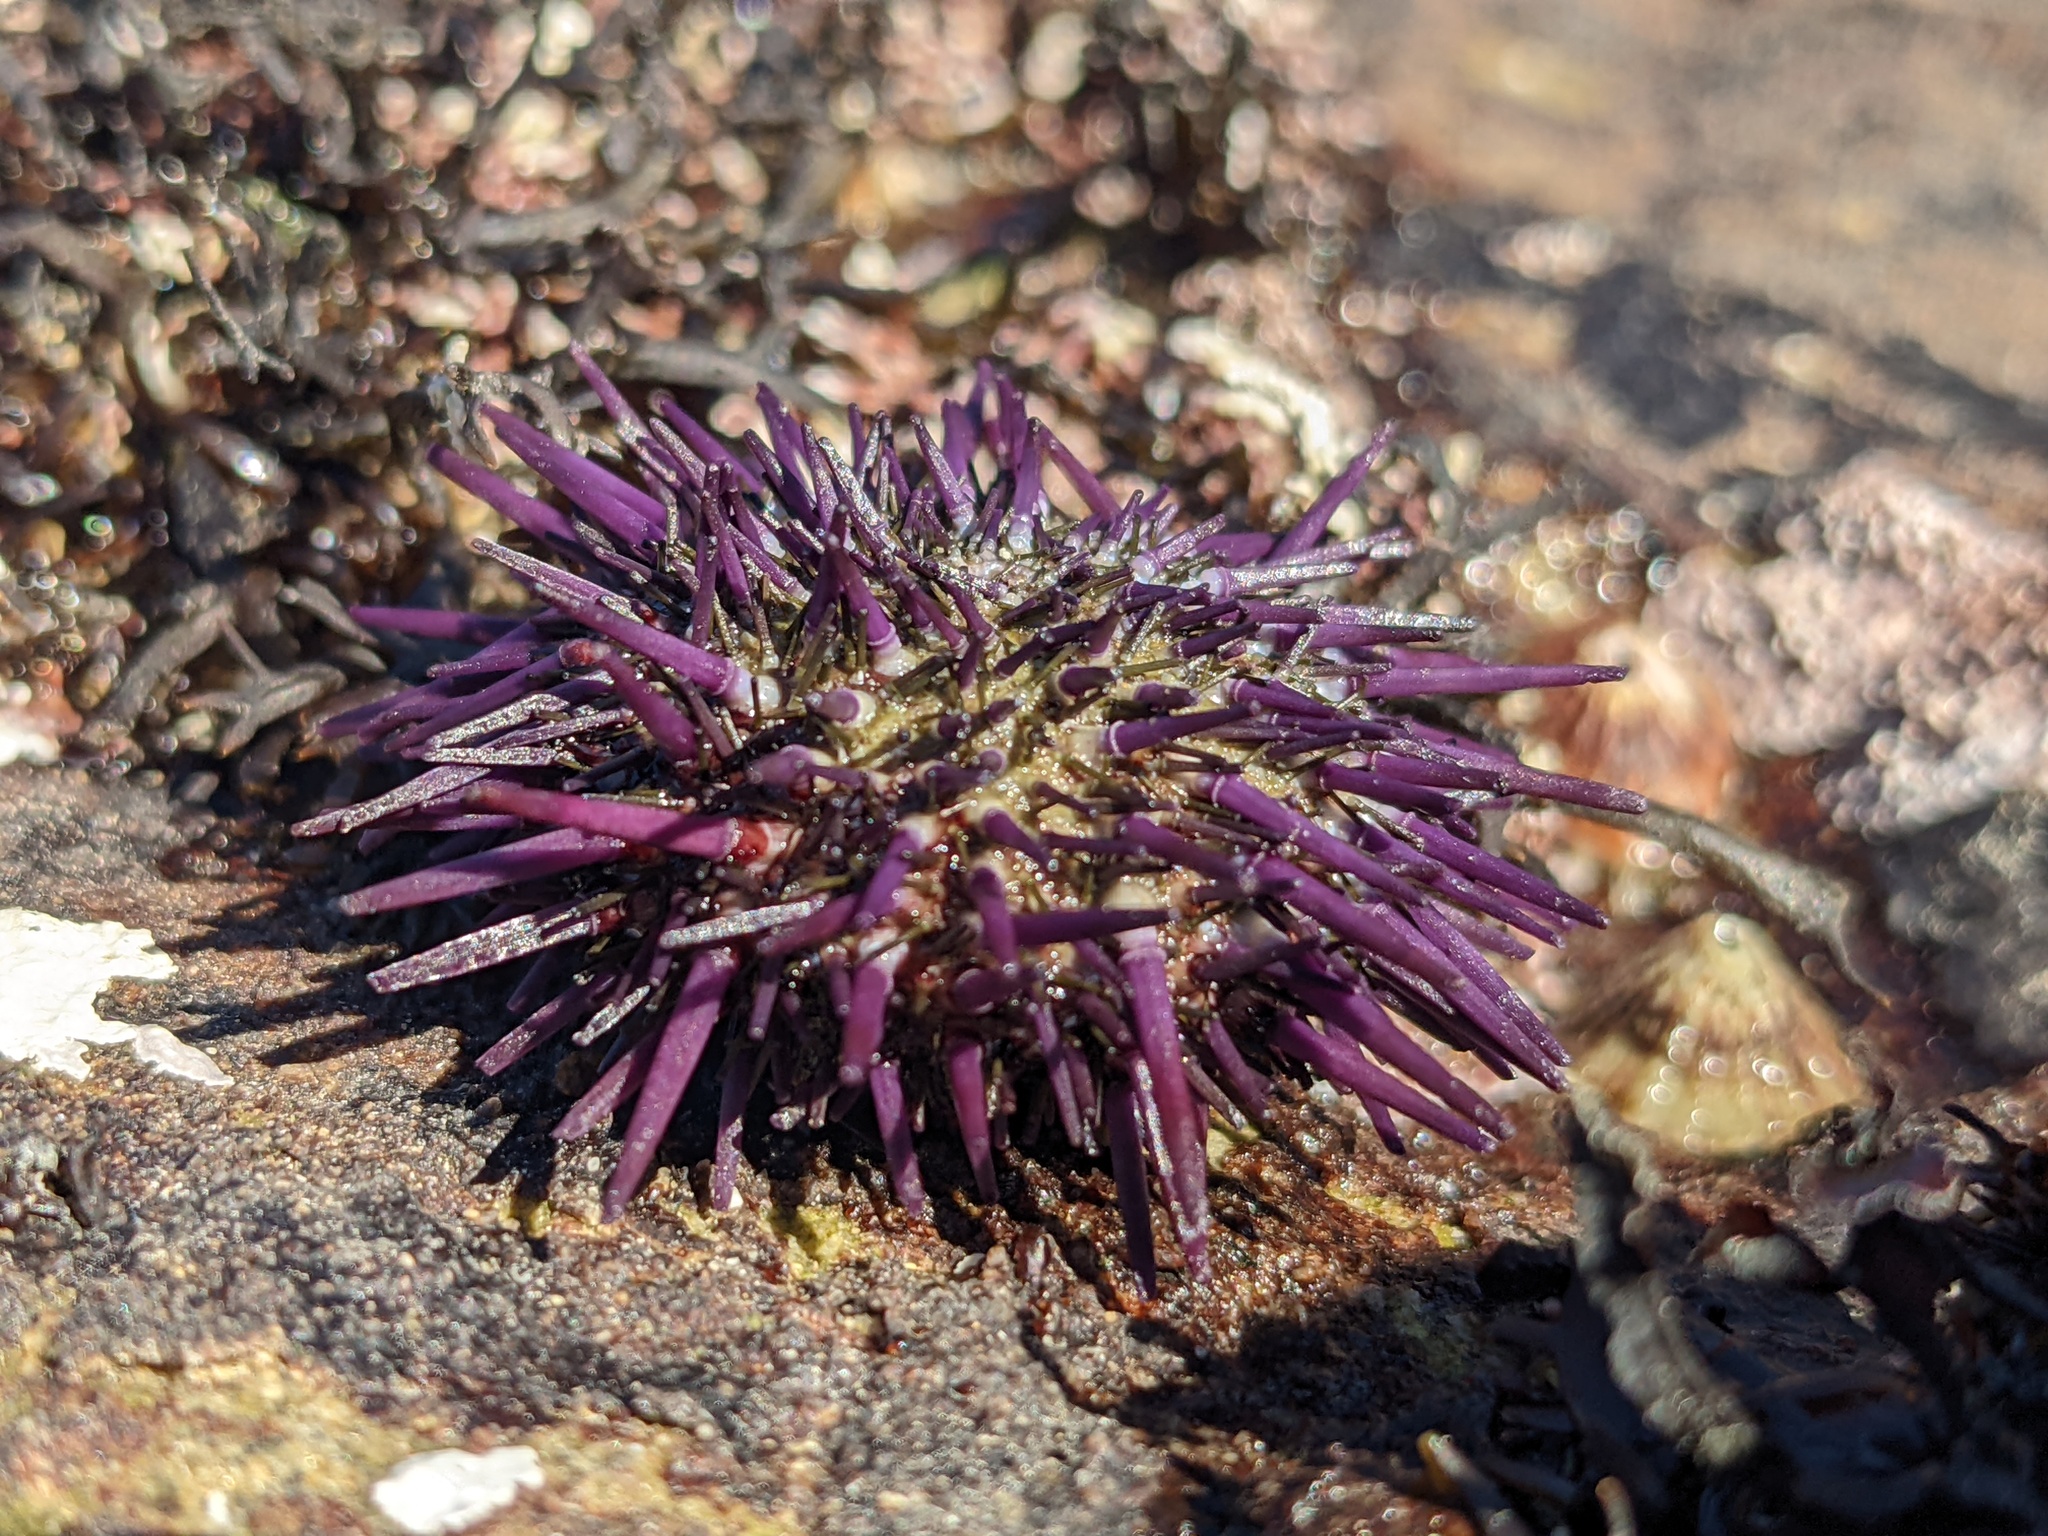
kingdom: Animalia
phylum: Echinodermata
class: Echinoidea
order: Camarodonta
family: Strongylocentrotidae
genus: Strongylocentrotus
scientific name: Strongylocentrotus purpuratus
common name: Purple sea urchin
